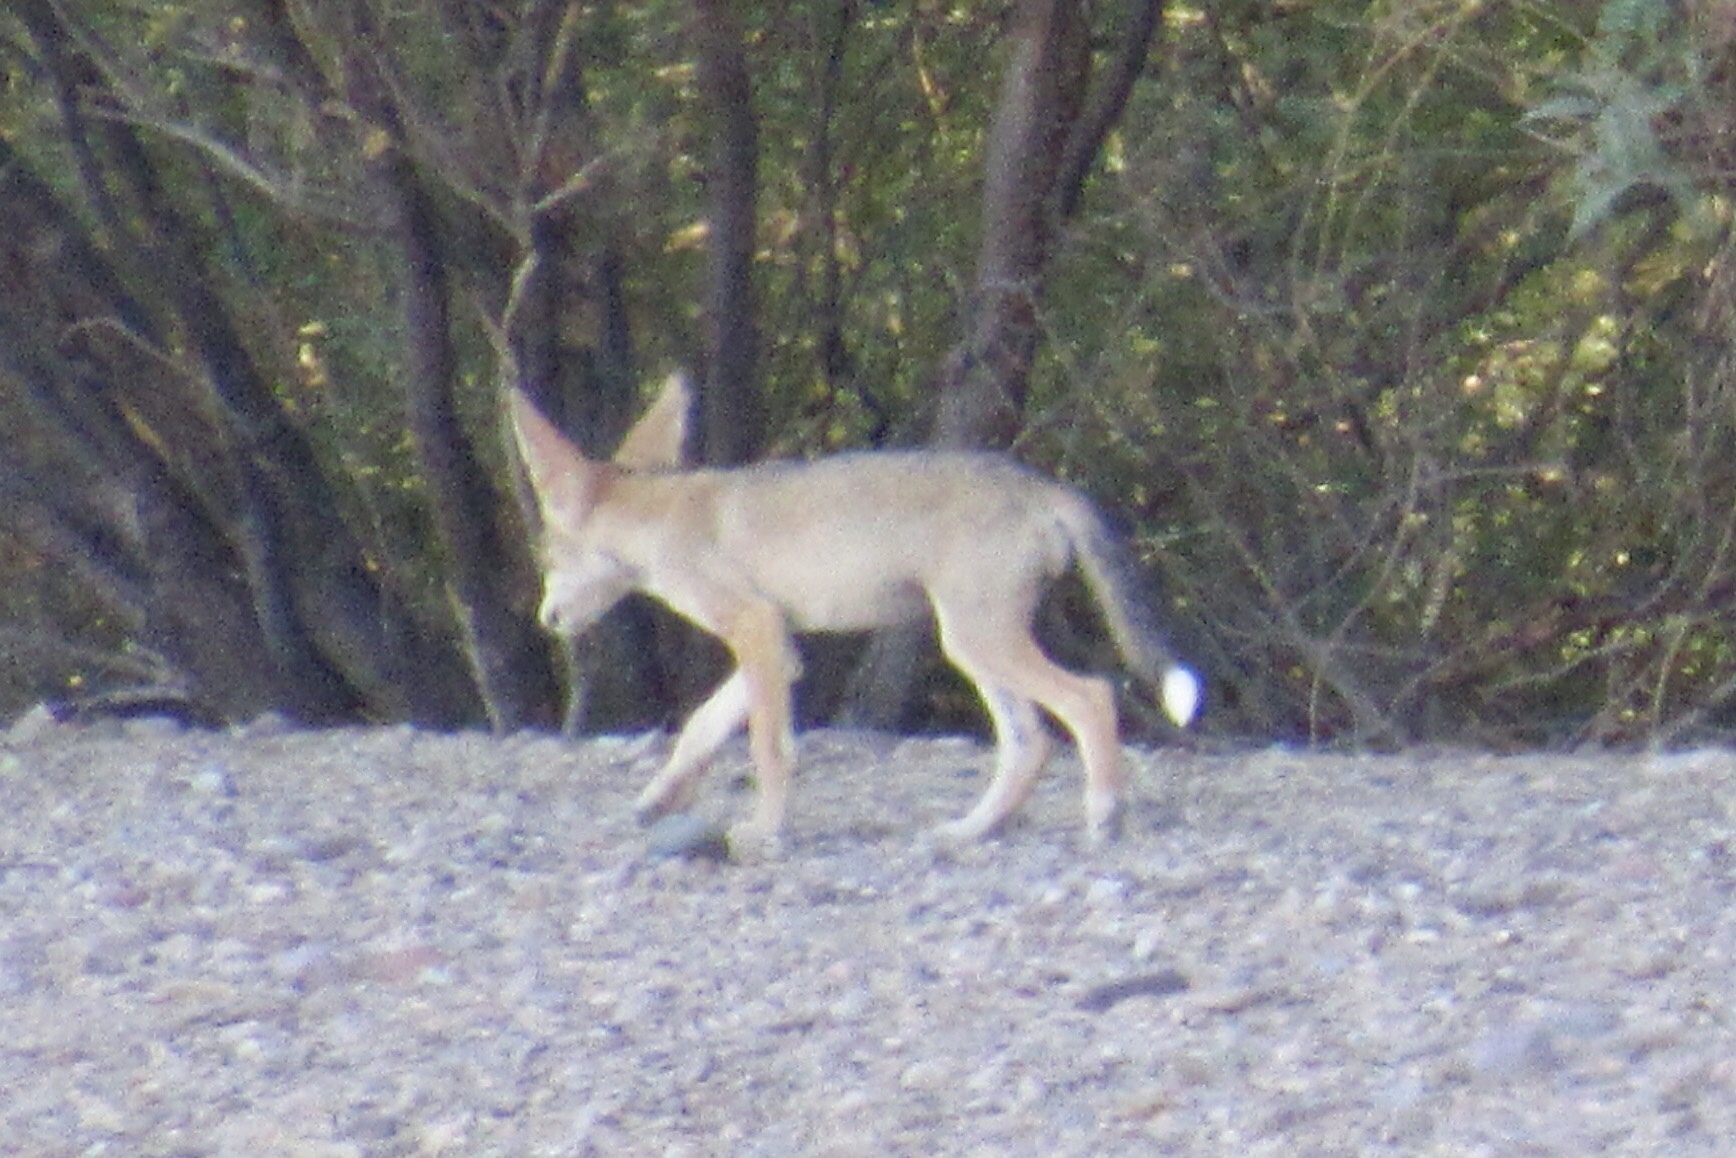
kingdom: Animalia
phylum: Chordata
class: Mammalia
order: Carnivora
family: Canidae
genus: Canis
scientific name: Canis latrans
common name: Coyote
